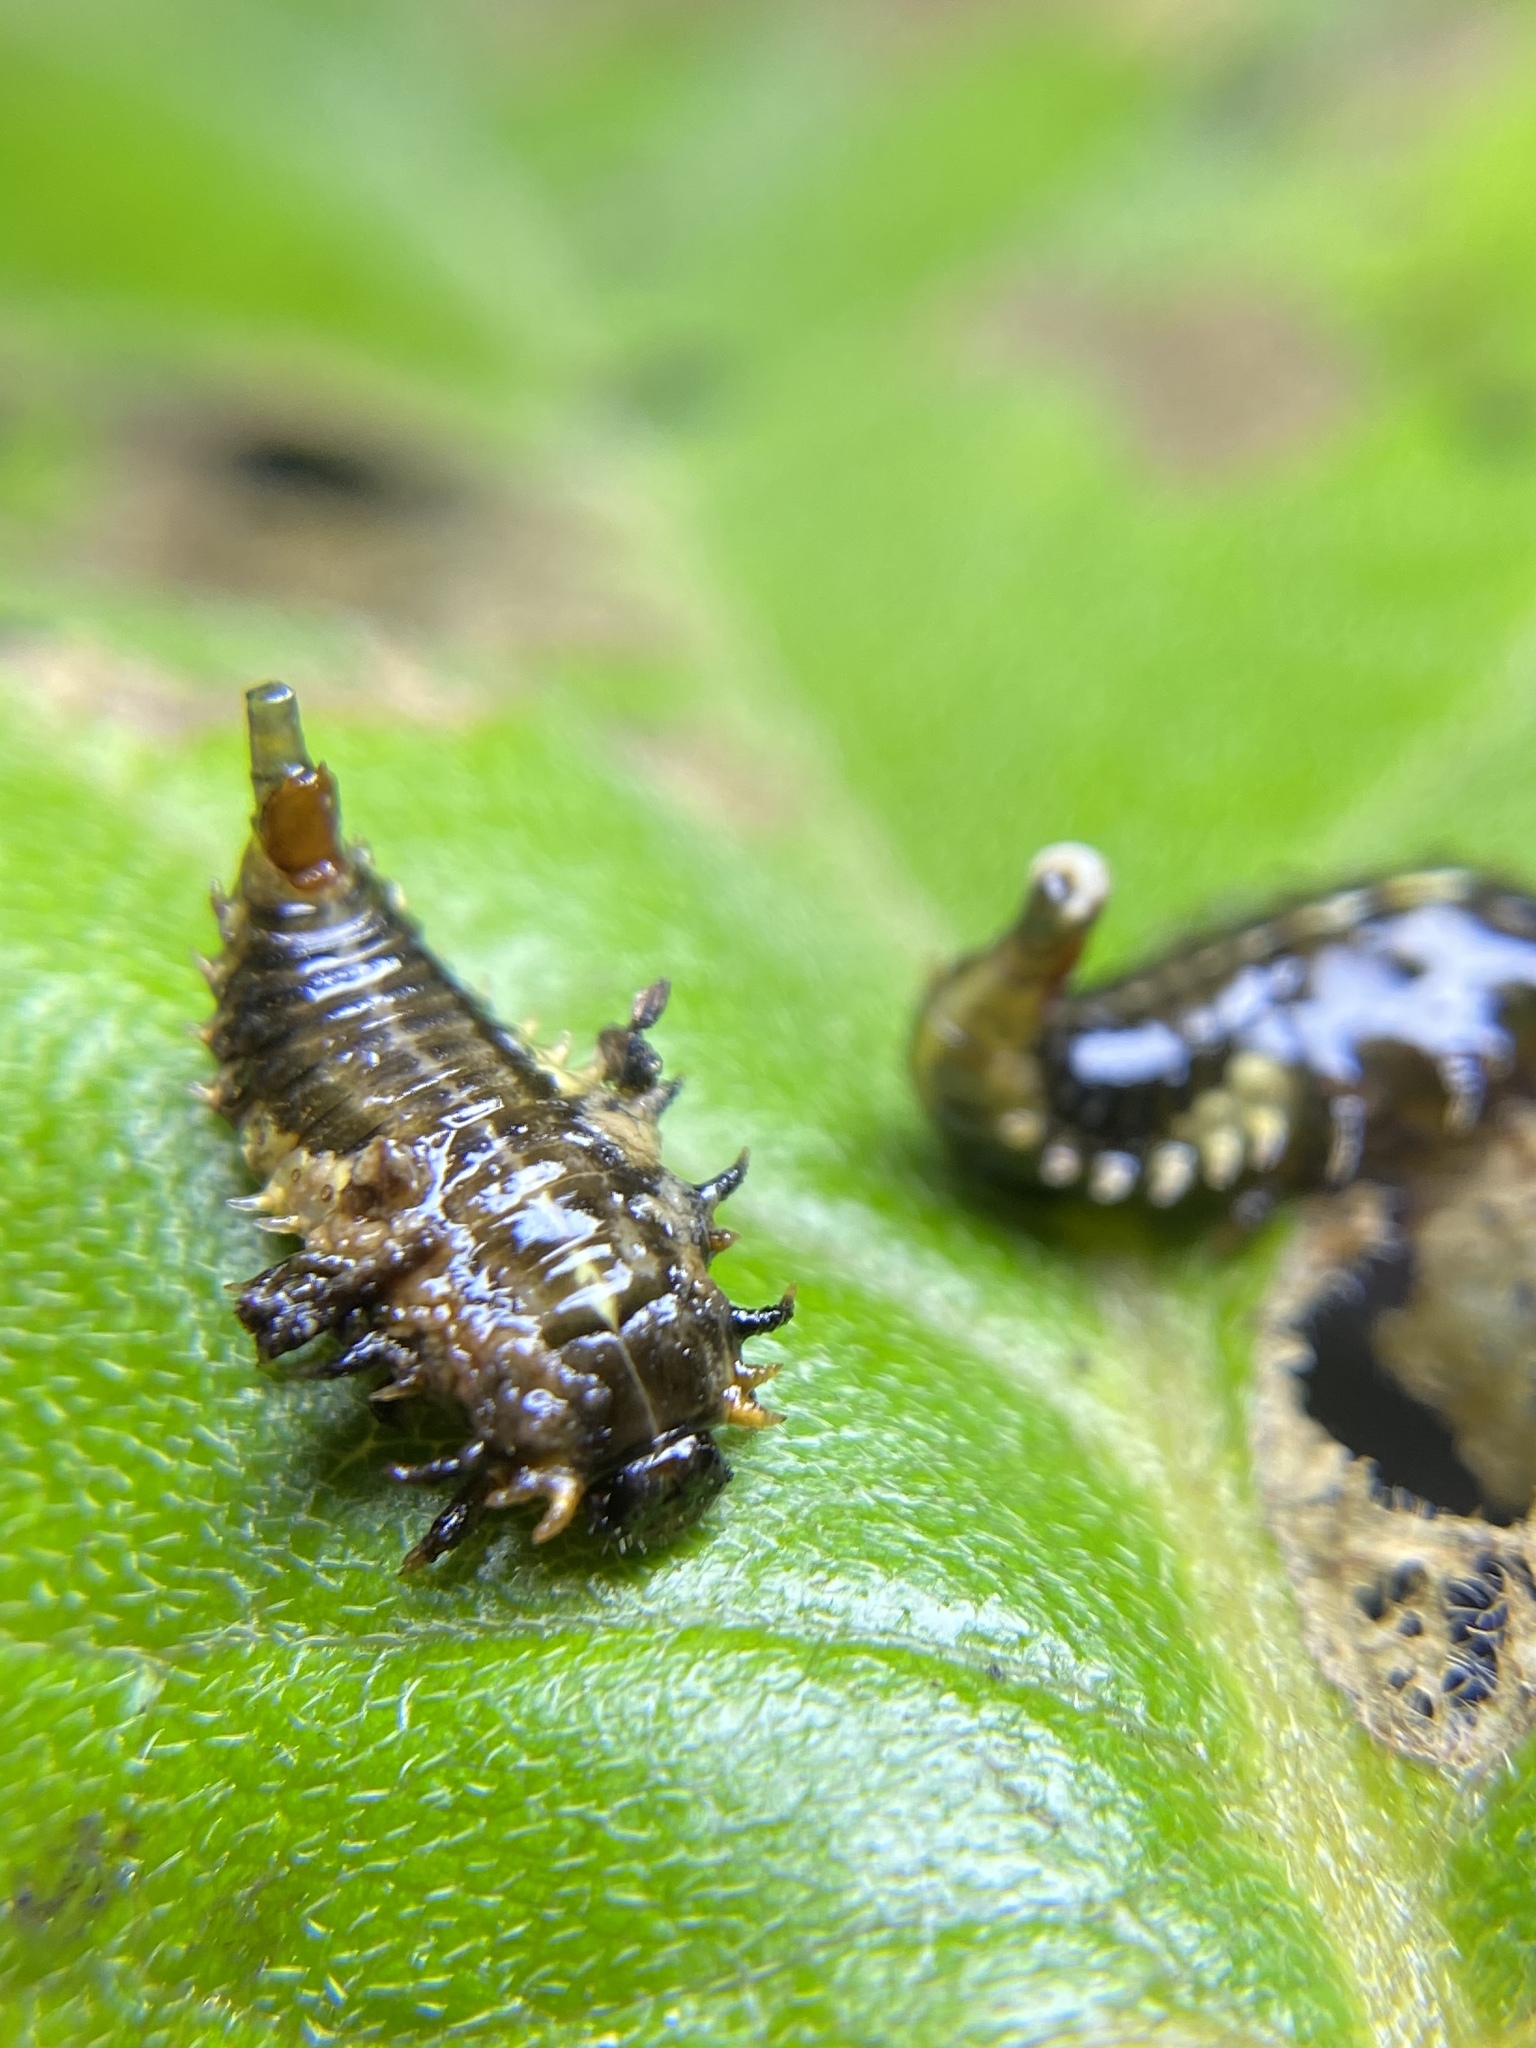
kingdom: Animalia
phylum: Arthropoda
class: Insecta
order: Coleoptera
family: Chrysomelidae
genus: Eurypepla
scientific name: Eurypepla calochroma
